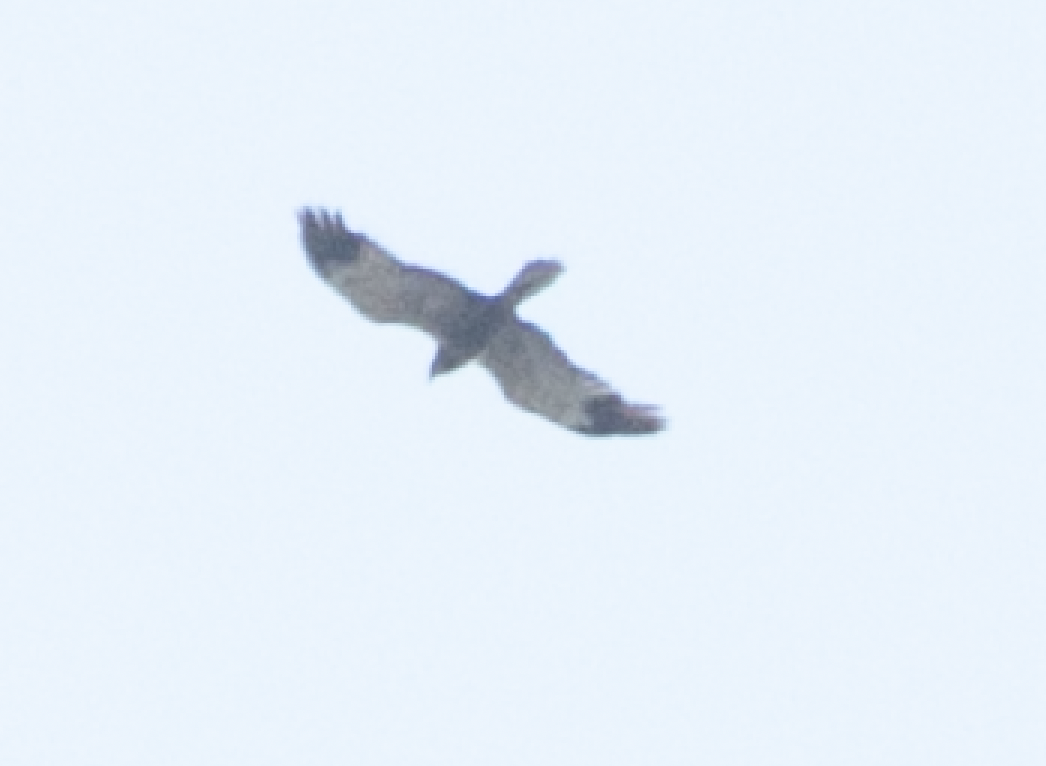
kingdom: Animalia
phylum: Chordata
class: Aves
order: Accipitriformes
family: Accipitridae
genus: Circus
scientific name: Circus aeruginosus
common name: Western marsh harrier
